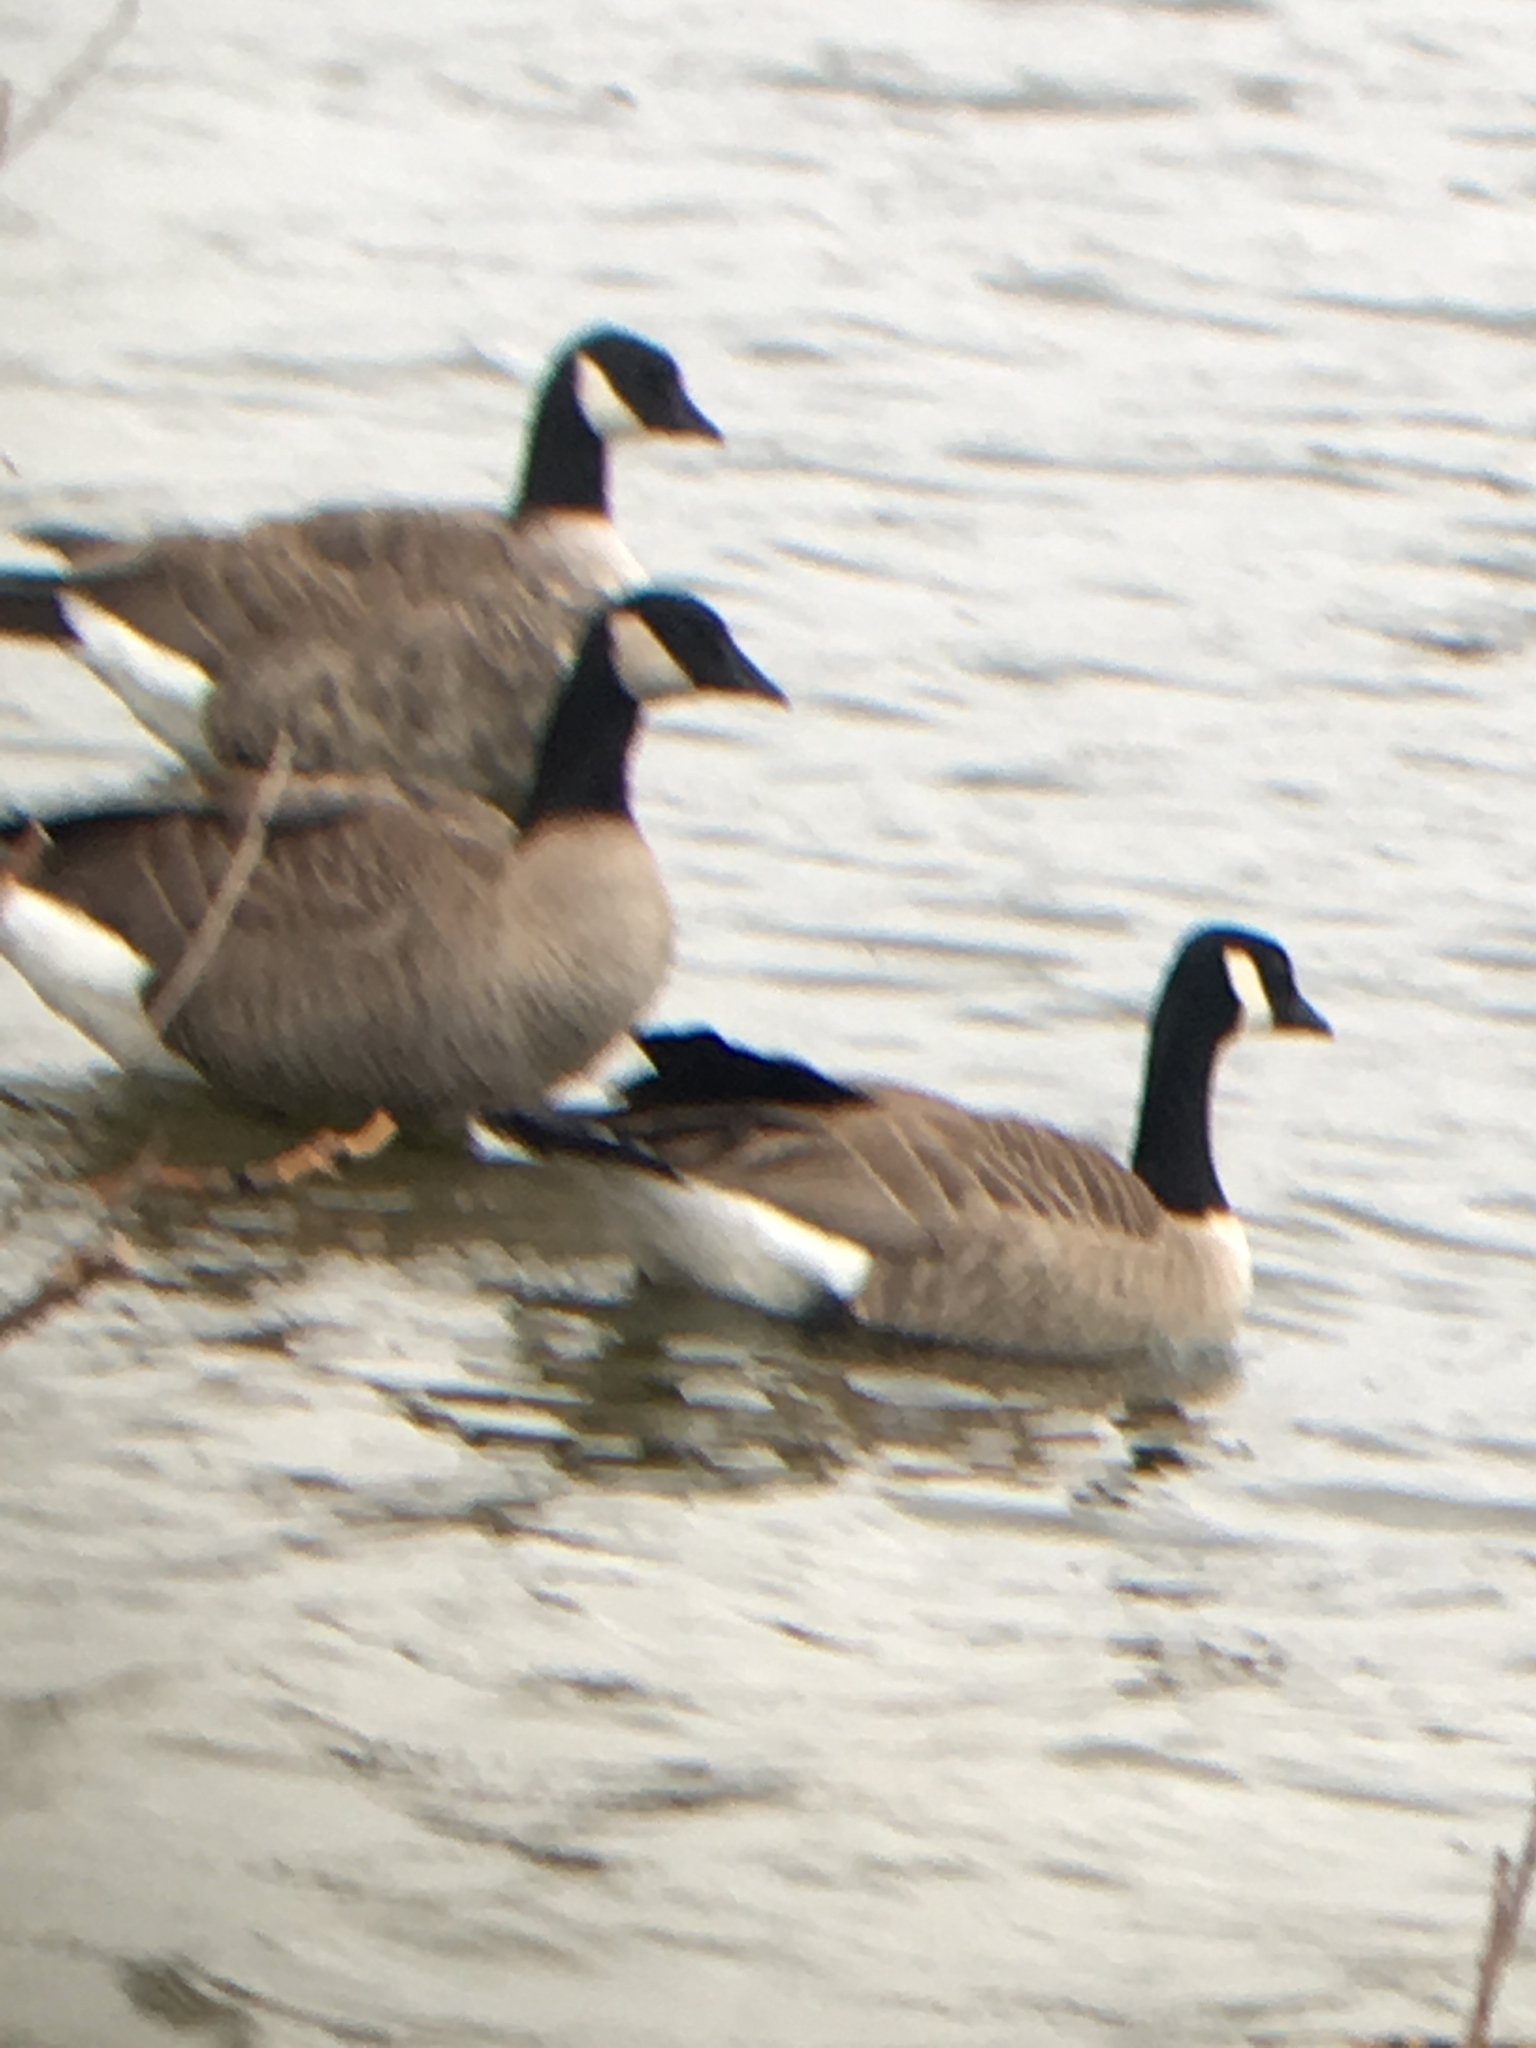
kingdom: Animalia
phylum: Chordata
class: Aves
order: Anseriformes
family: Anatidae
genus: Branta
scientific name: Branta hutchinsii
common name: Cackling goose
